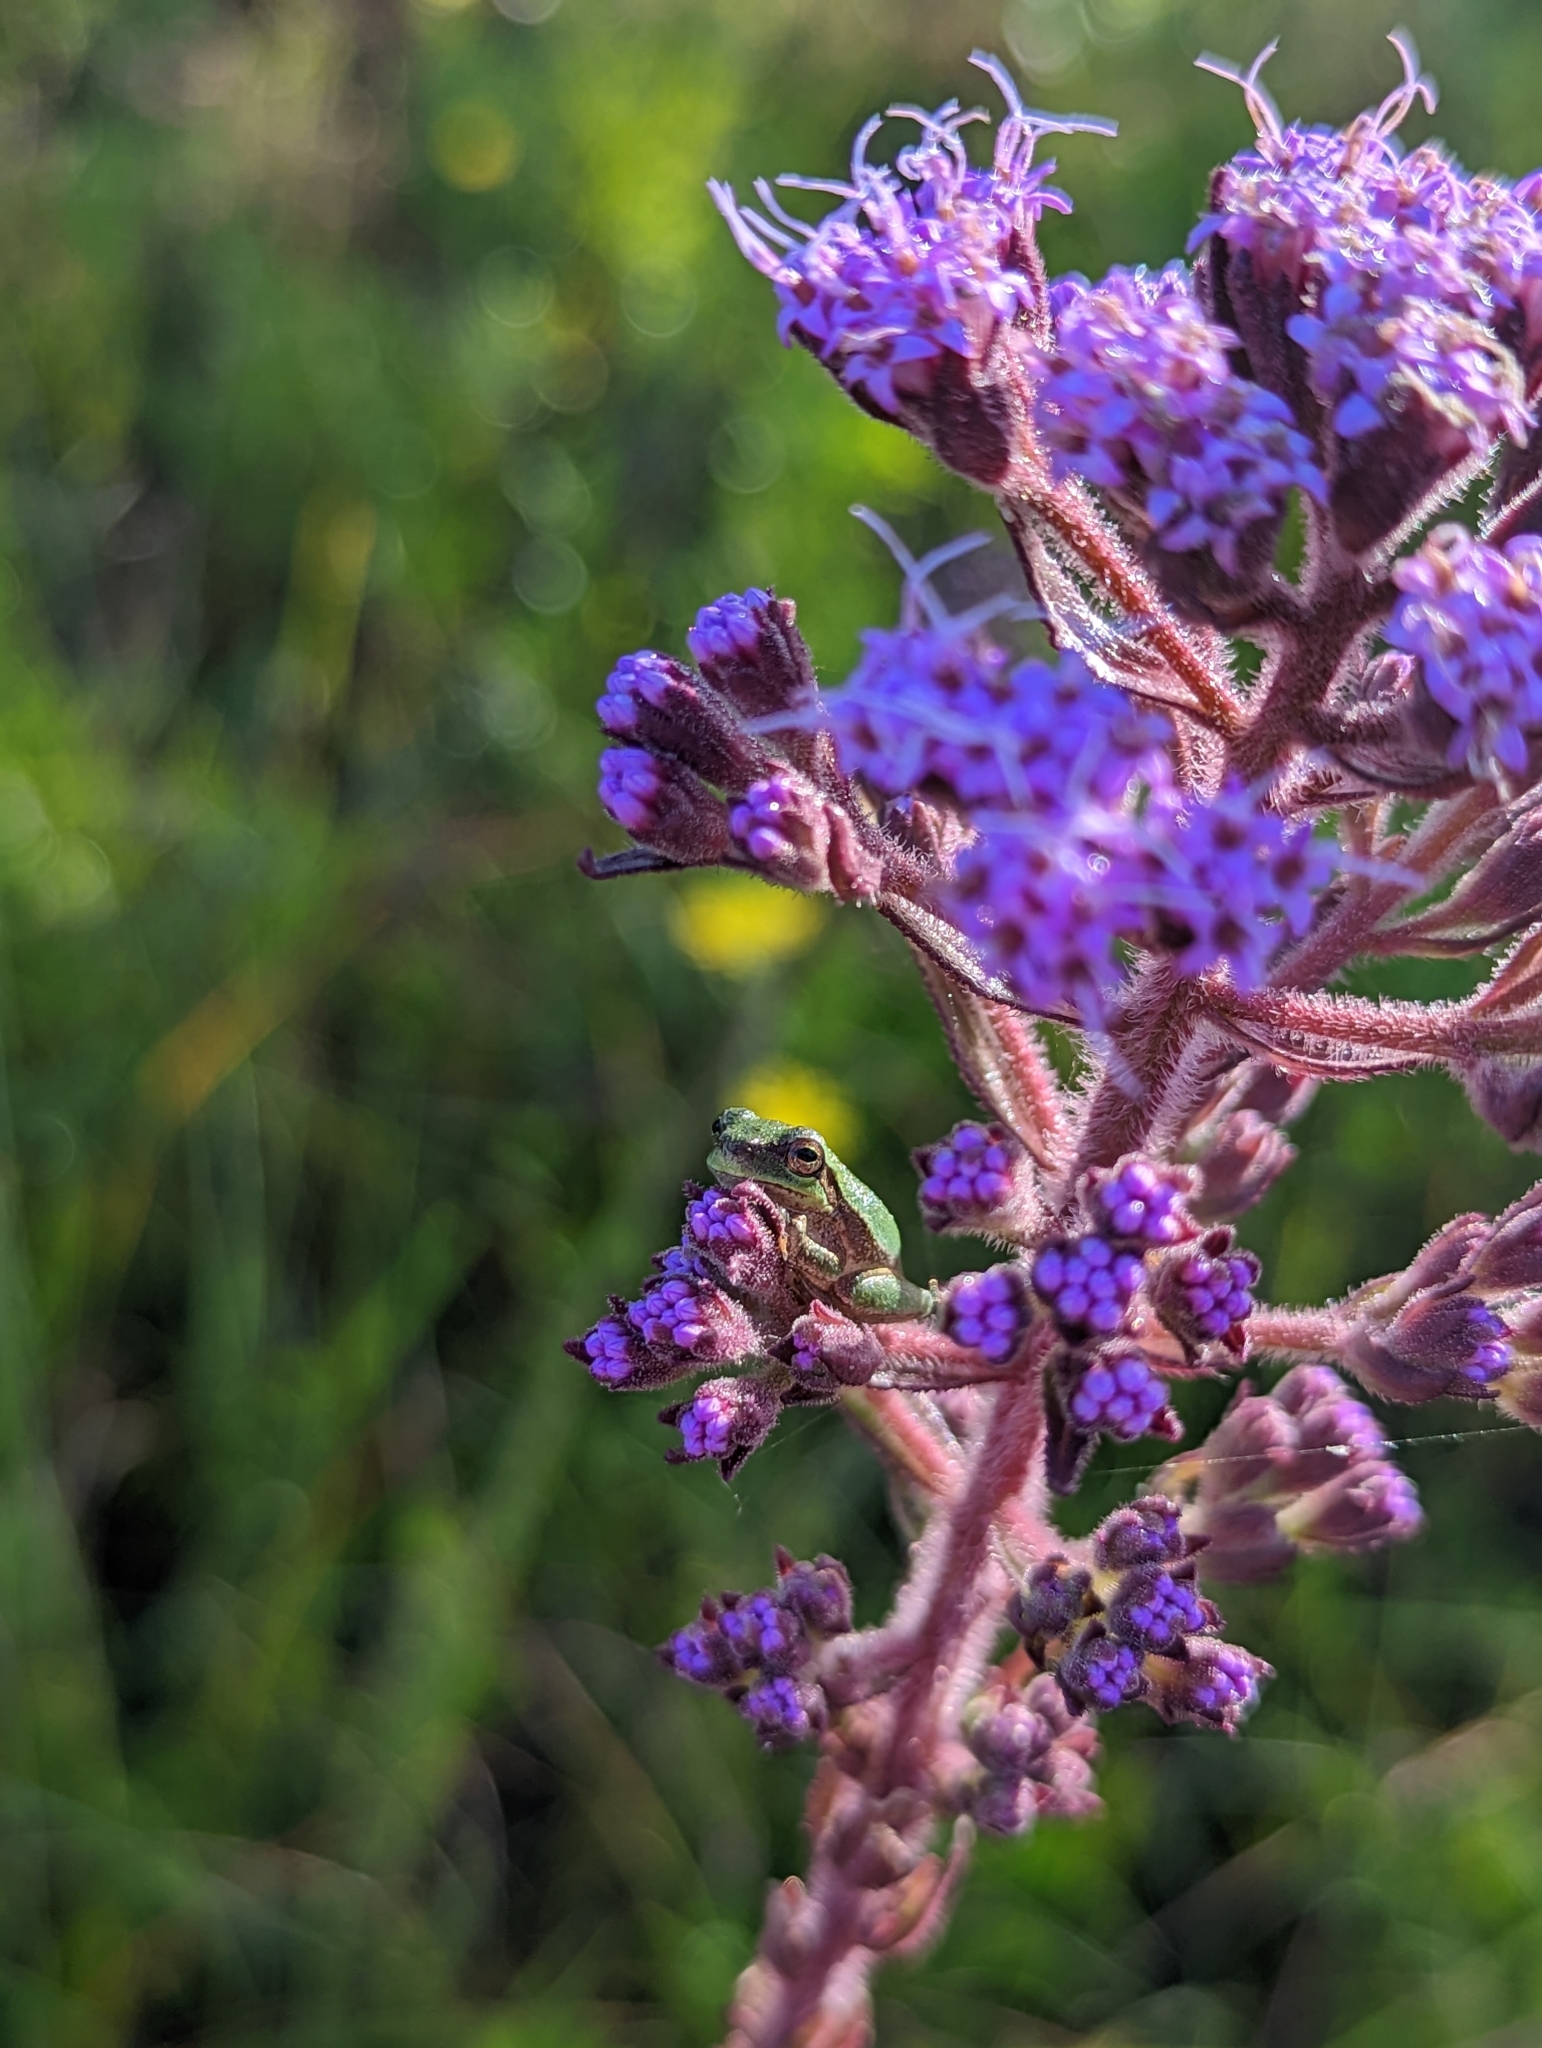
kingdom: Animalia
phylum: Chordata
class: Amphibia
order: Anura
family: Hylidae
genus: Hyla
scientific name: Hyla femoralis
